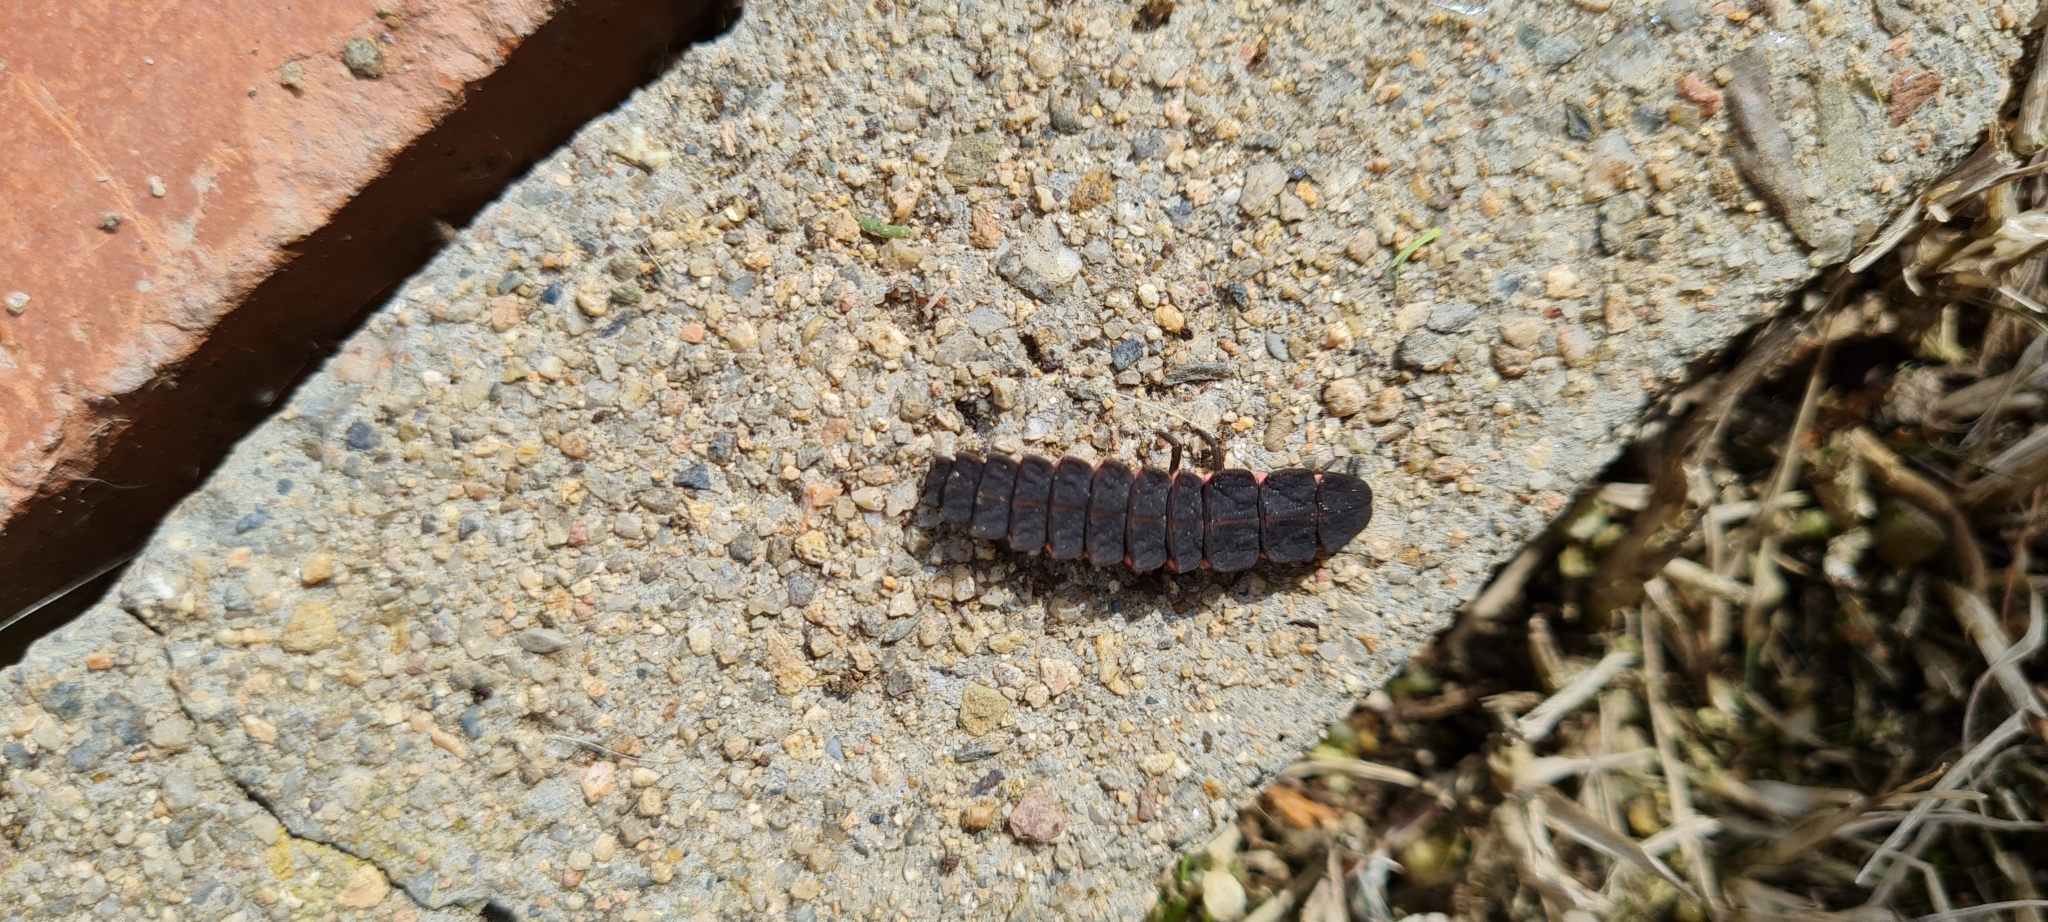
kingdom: Animalia
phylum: Arthropoda
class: Insecta
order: Coleoptera
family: Lampyridae
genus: Nyctophila
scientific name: Nyctophila reichii
